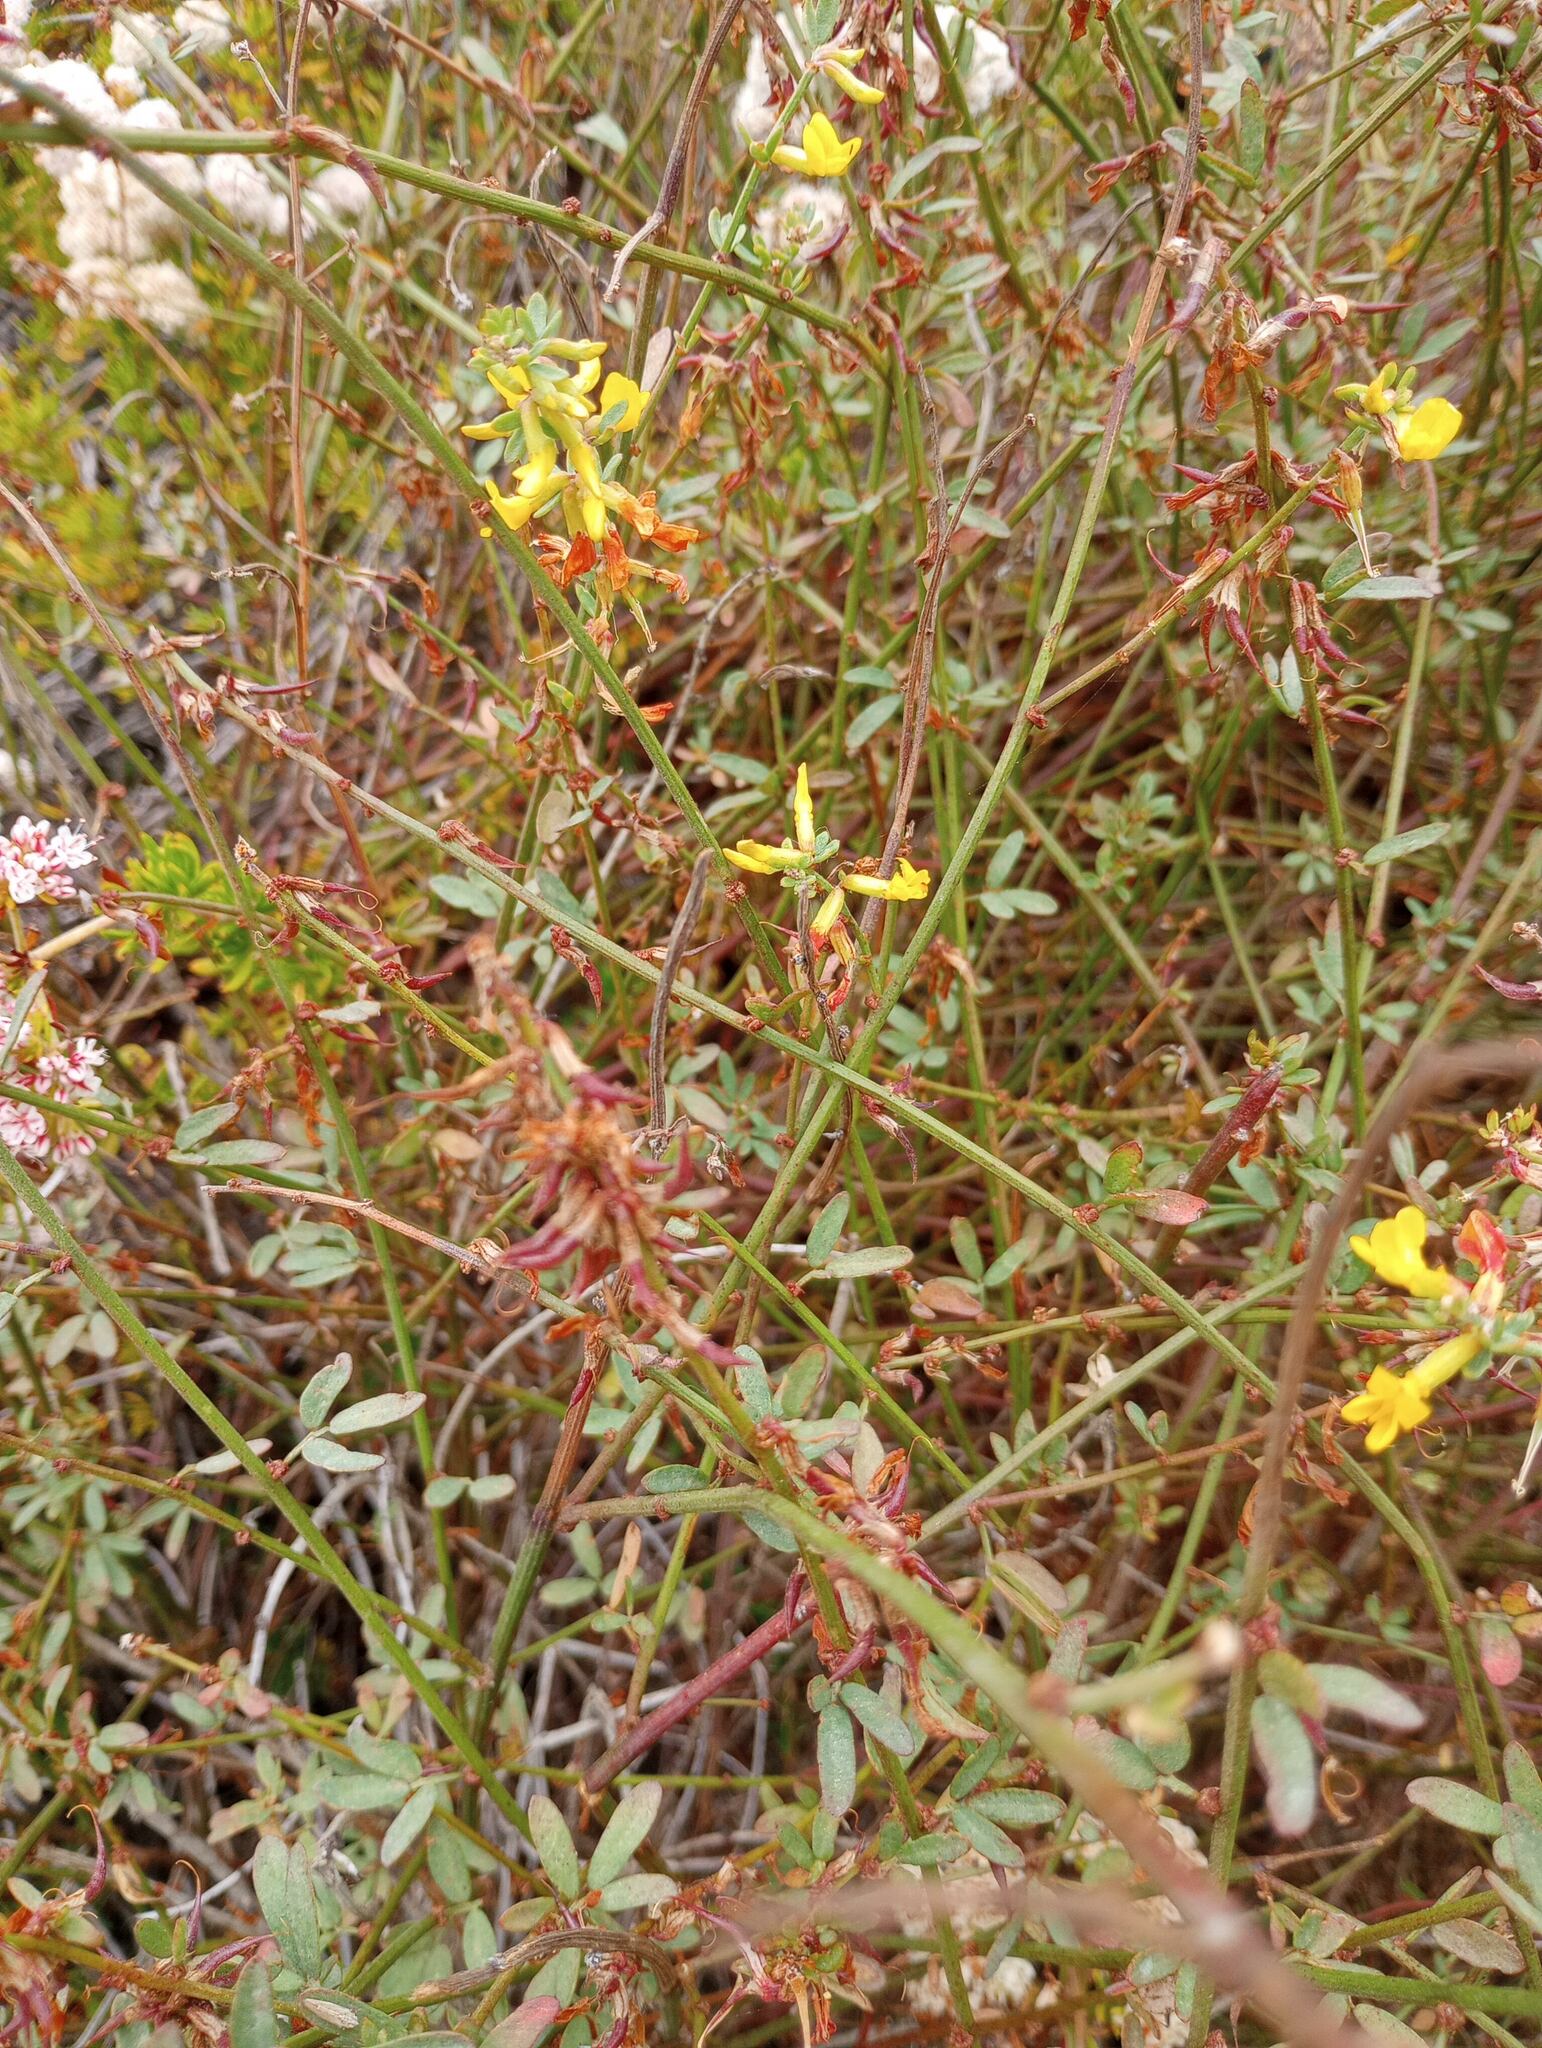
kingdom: Plantae
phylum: Tracheophyta
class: Magnoliopsida
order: Fabales
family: Fabaceae
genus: Acmispon
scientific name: Acmispon glaber
